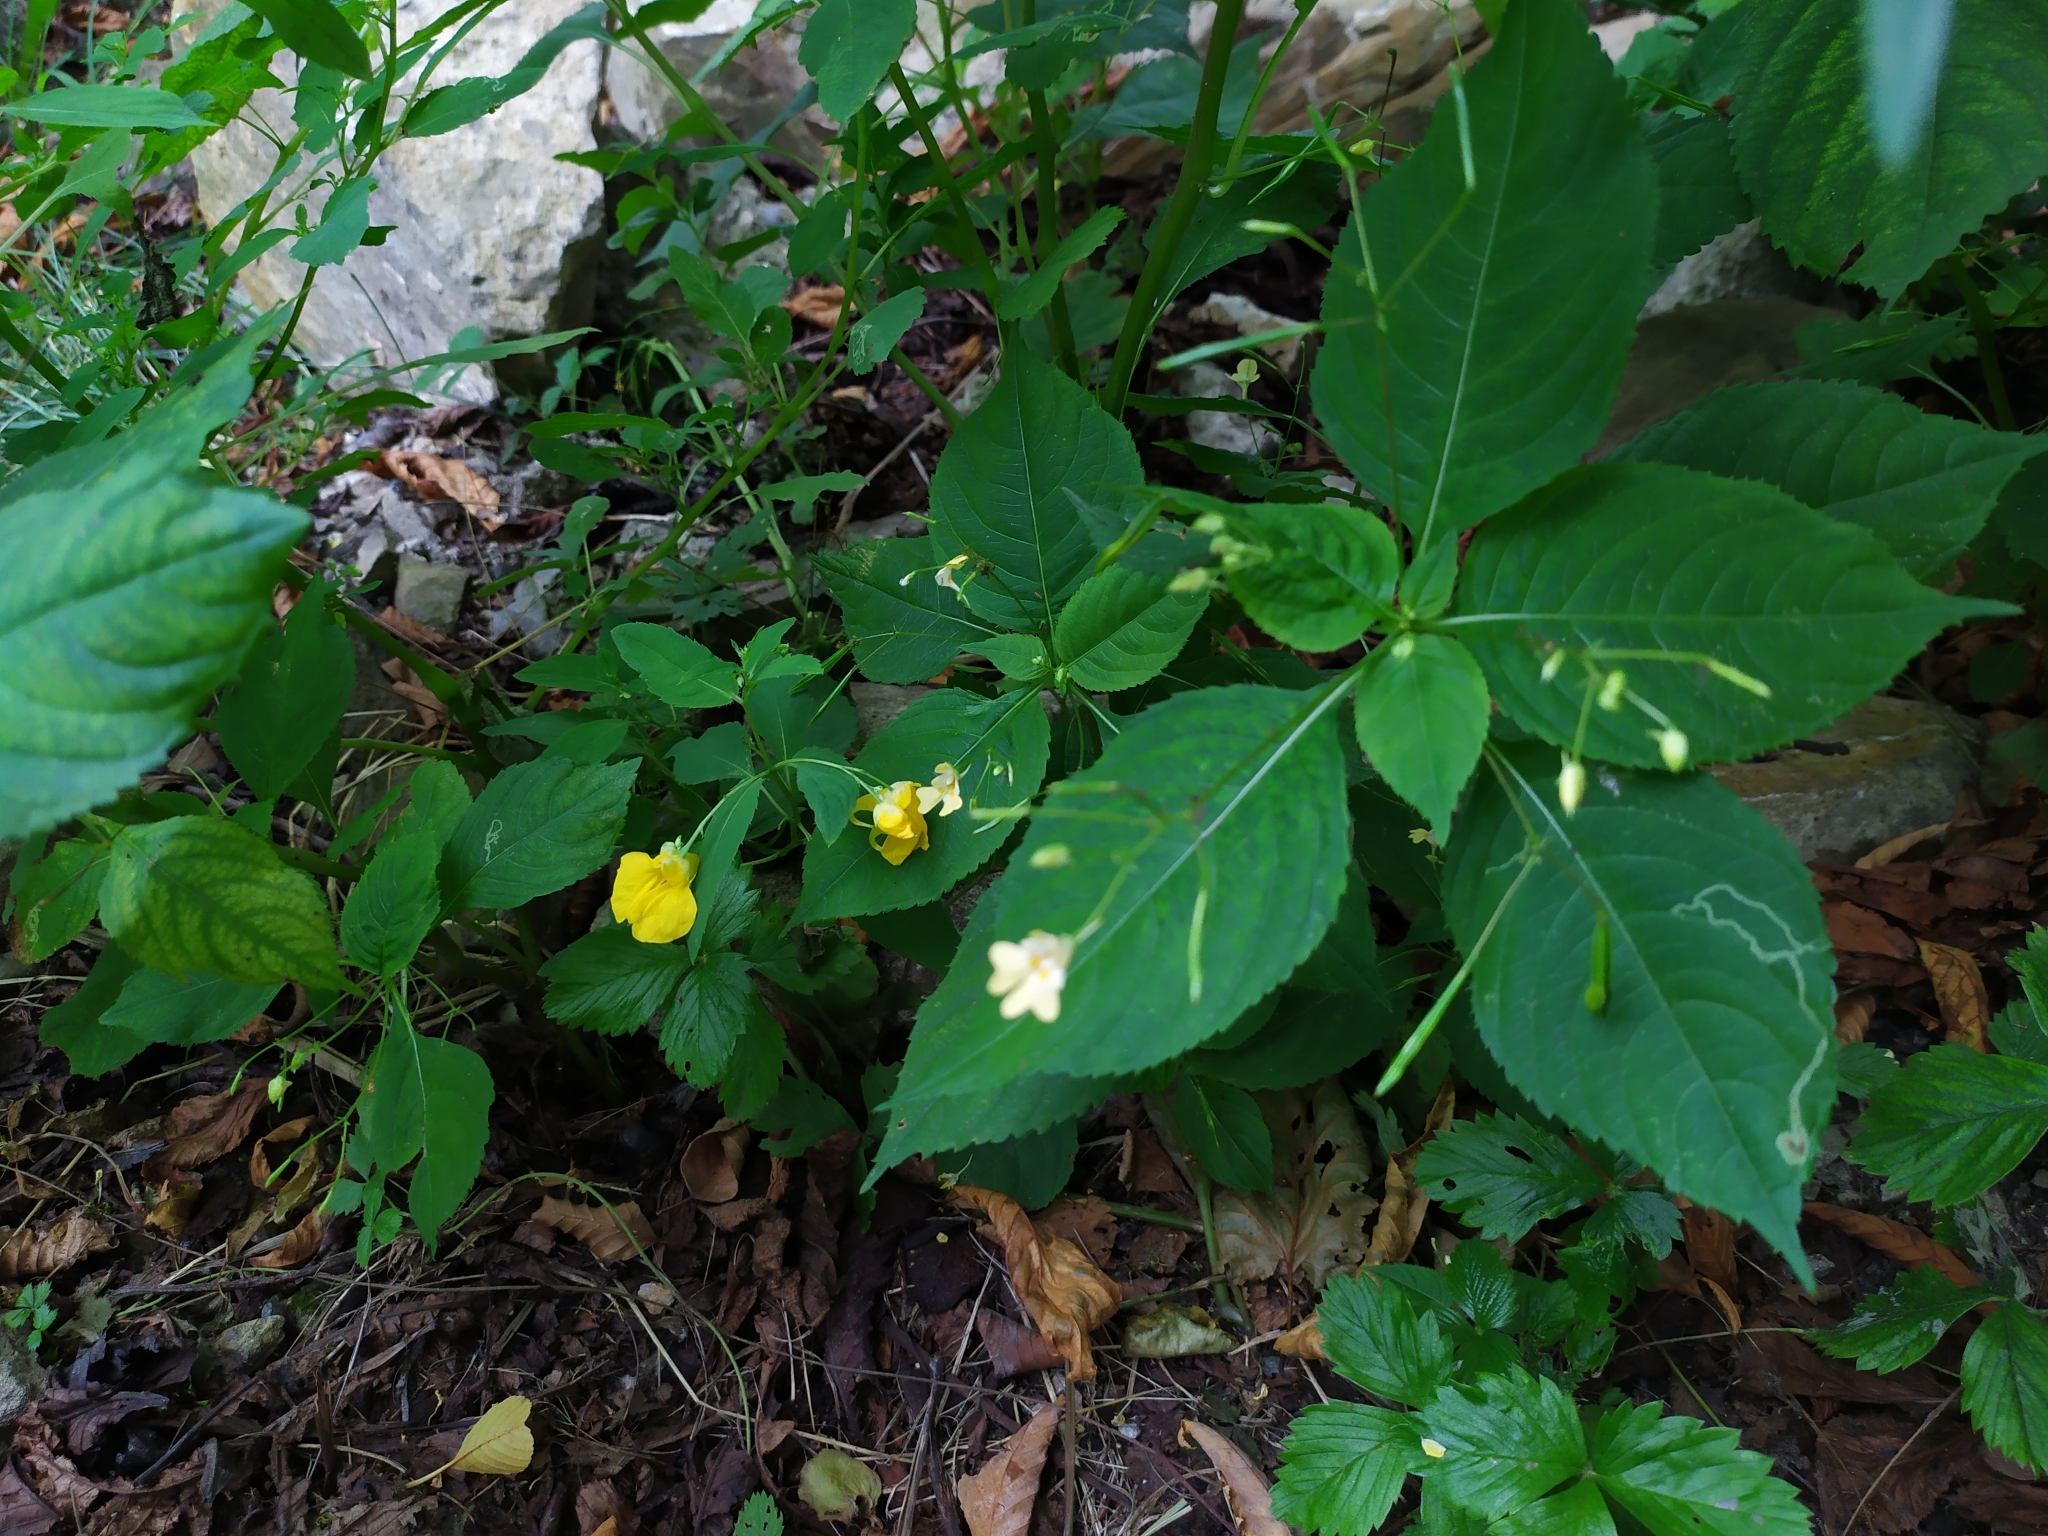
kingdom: Plantae
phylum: Tracheophyta
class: Magnoliopsida
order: Ericales
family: Balsaminaceae
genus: Impatiens
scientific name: Impatiens noli-tangere
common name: Touch-me-not balsam
